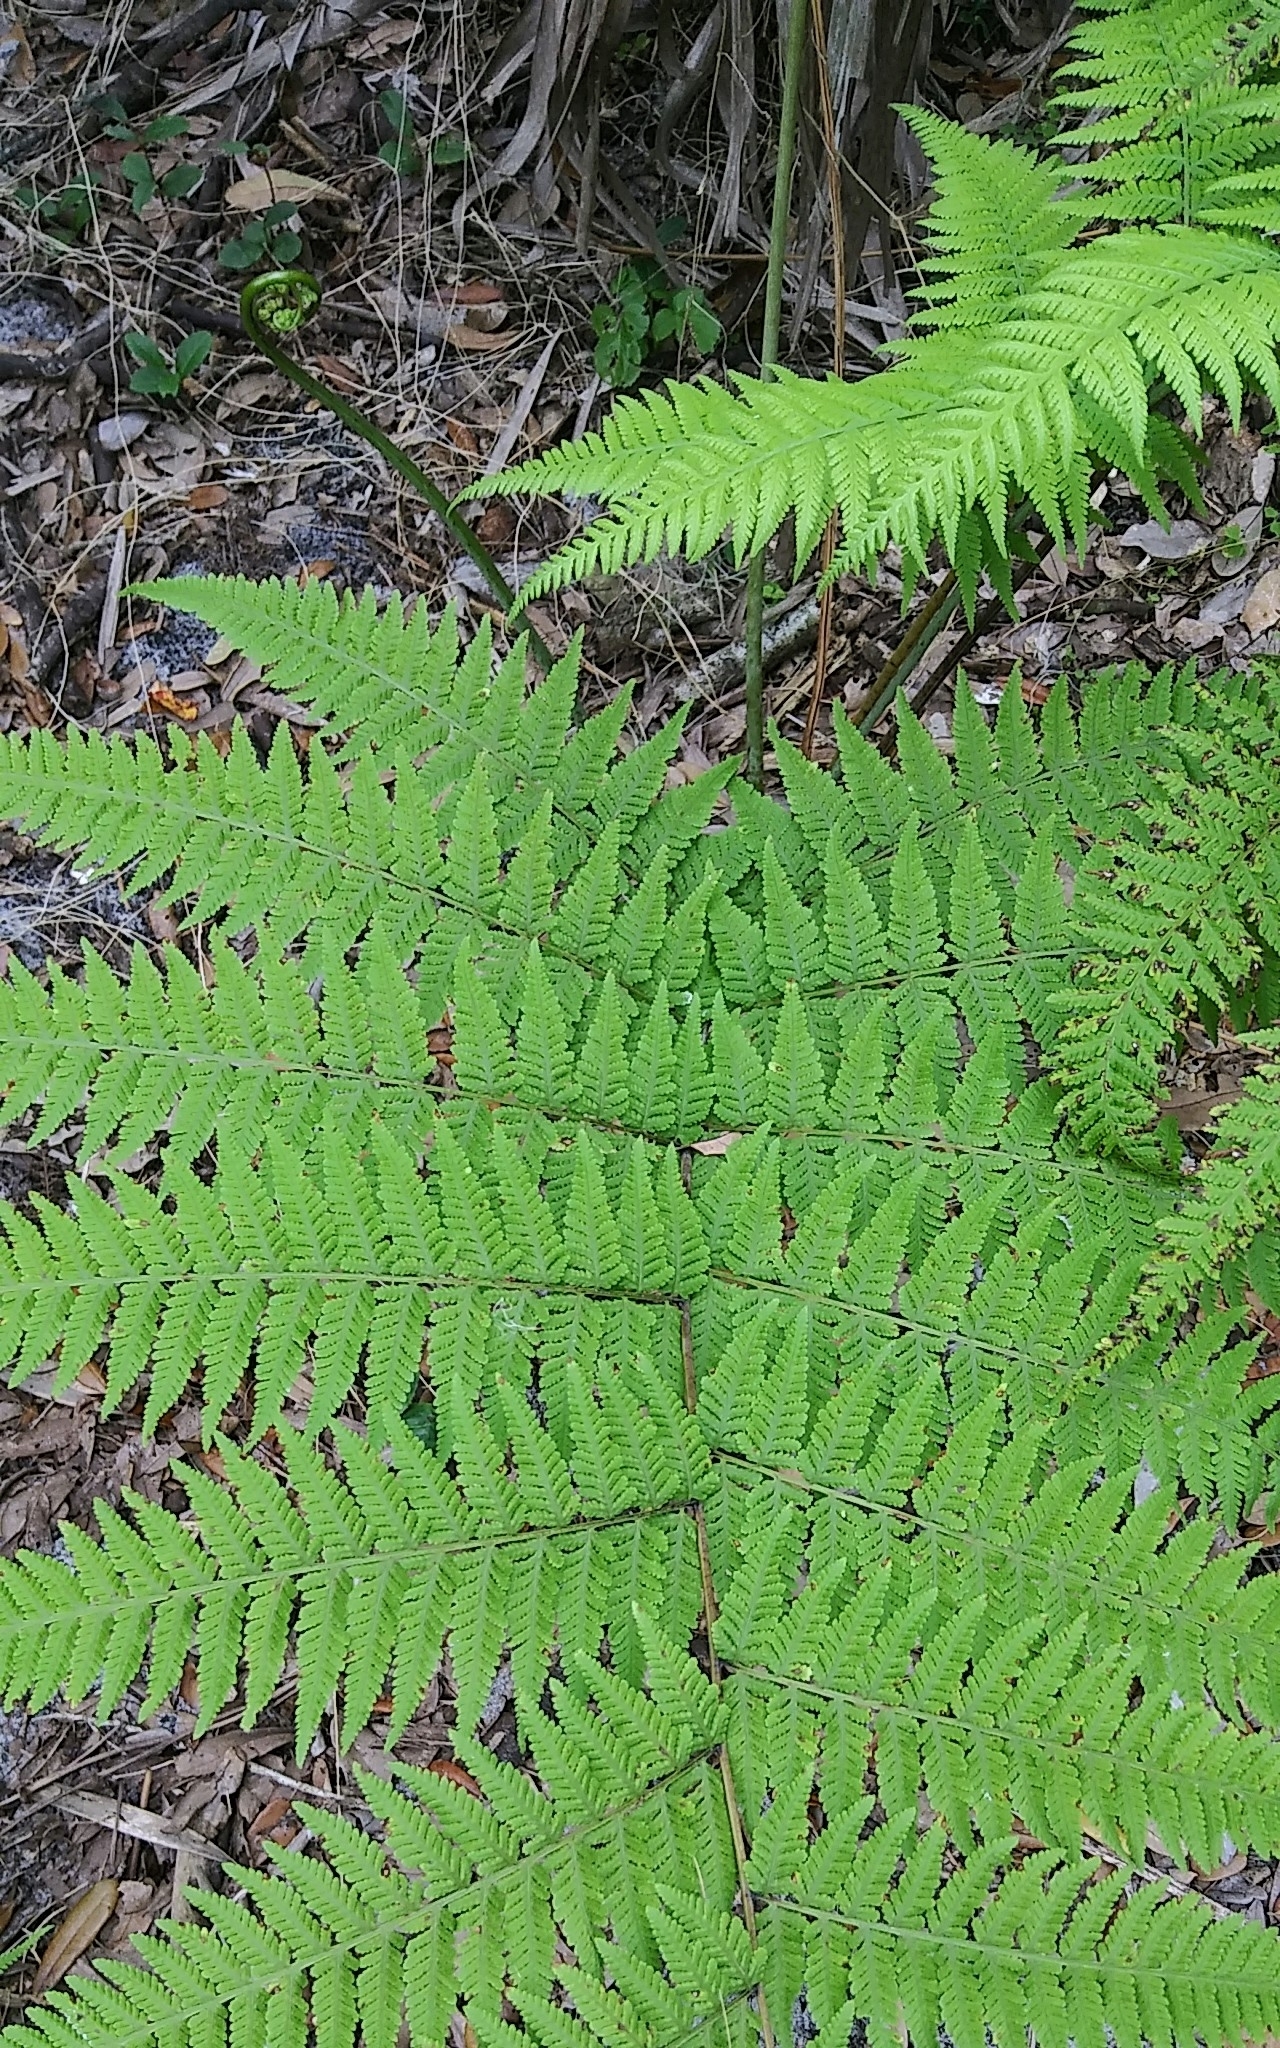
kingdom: Plantae
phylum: Tracheophyta
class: Polypodiopsida
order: Polypodiales
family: Thelypteridaceae
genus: Macrothelypteris
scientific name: Macrothelypteris torresiana
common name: Swordfern
